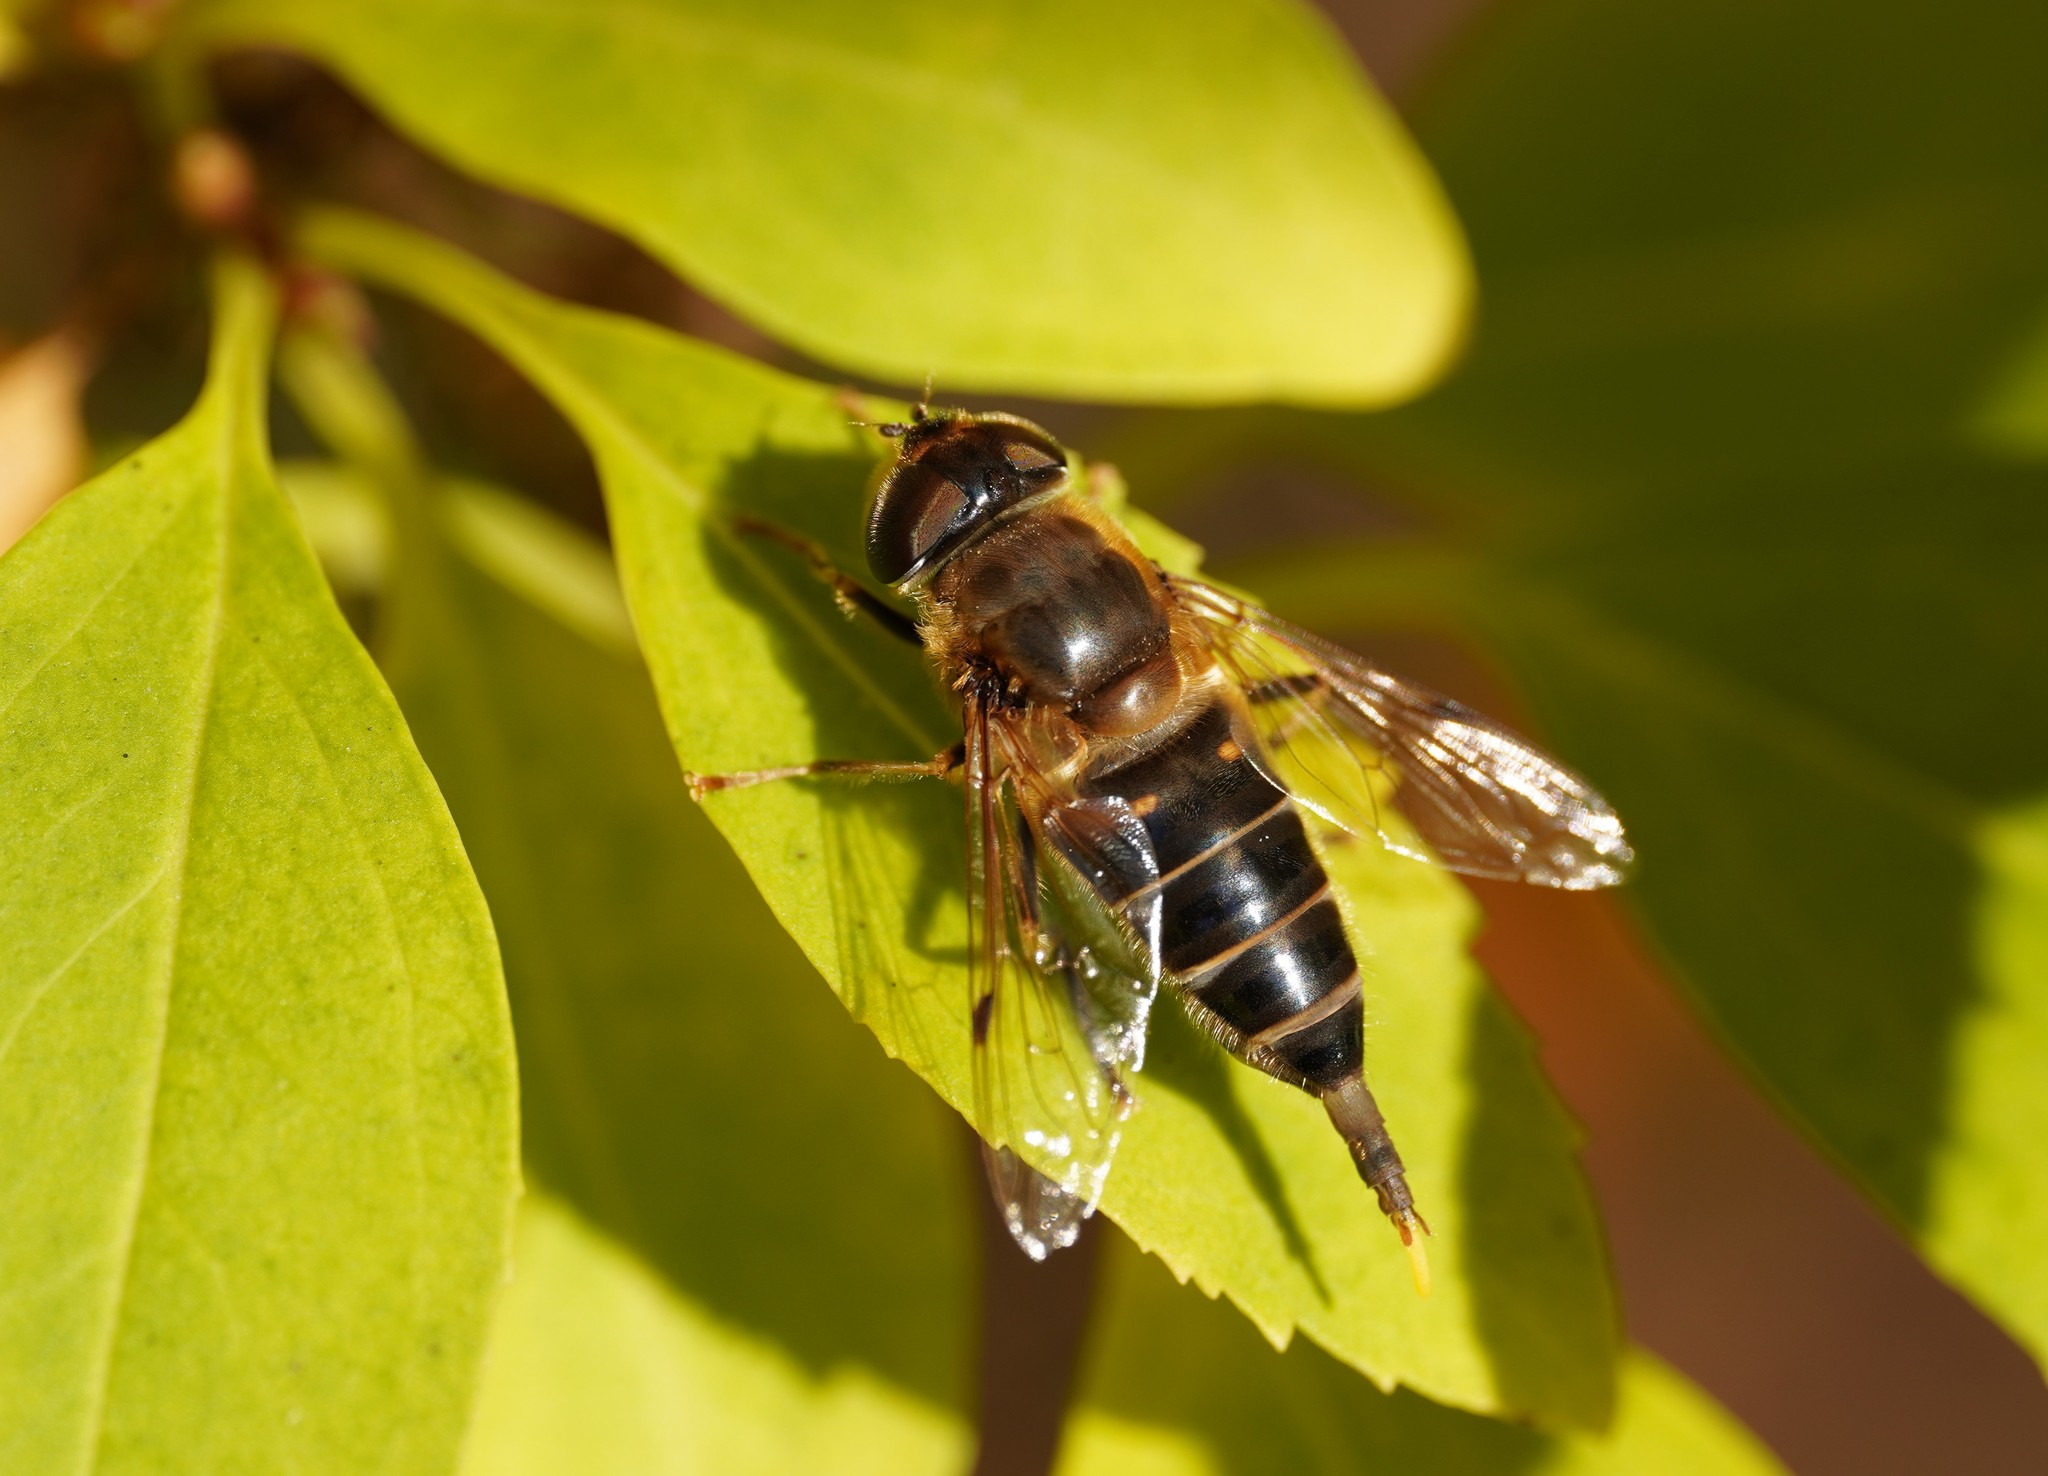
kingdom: Animalia
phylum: Arthropoda
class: Insecta
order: Diptera
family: Syrphidae
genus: Eristalis
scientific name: Eristalis pertinax
